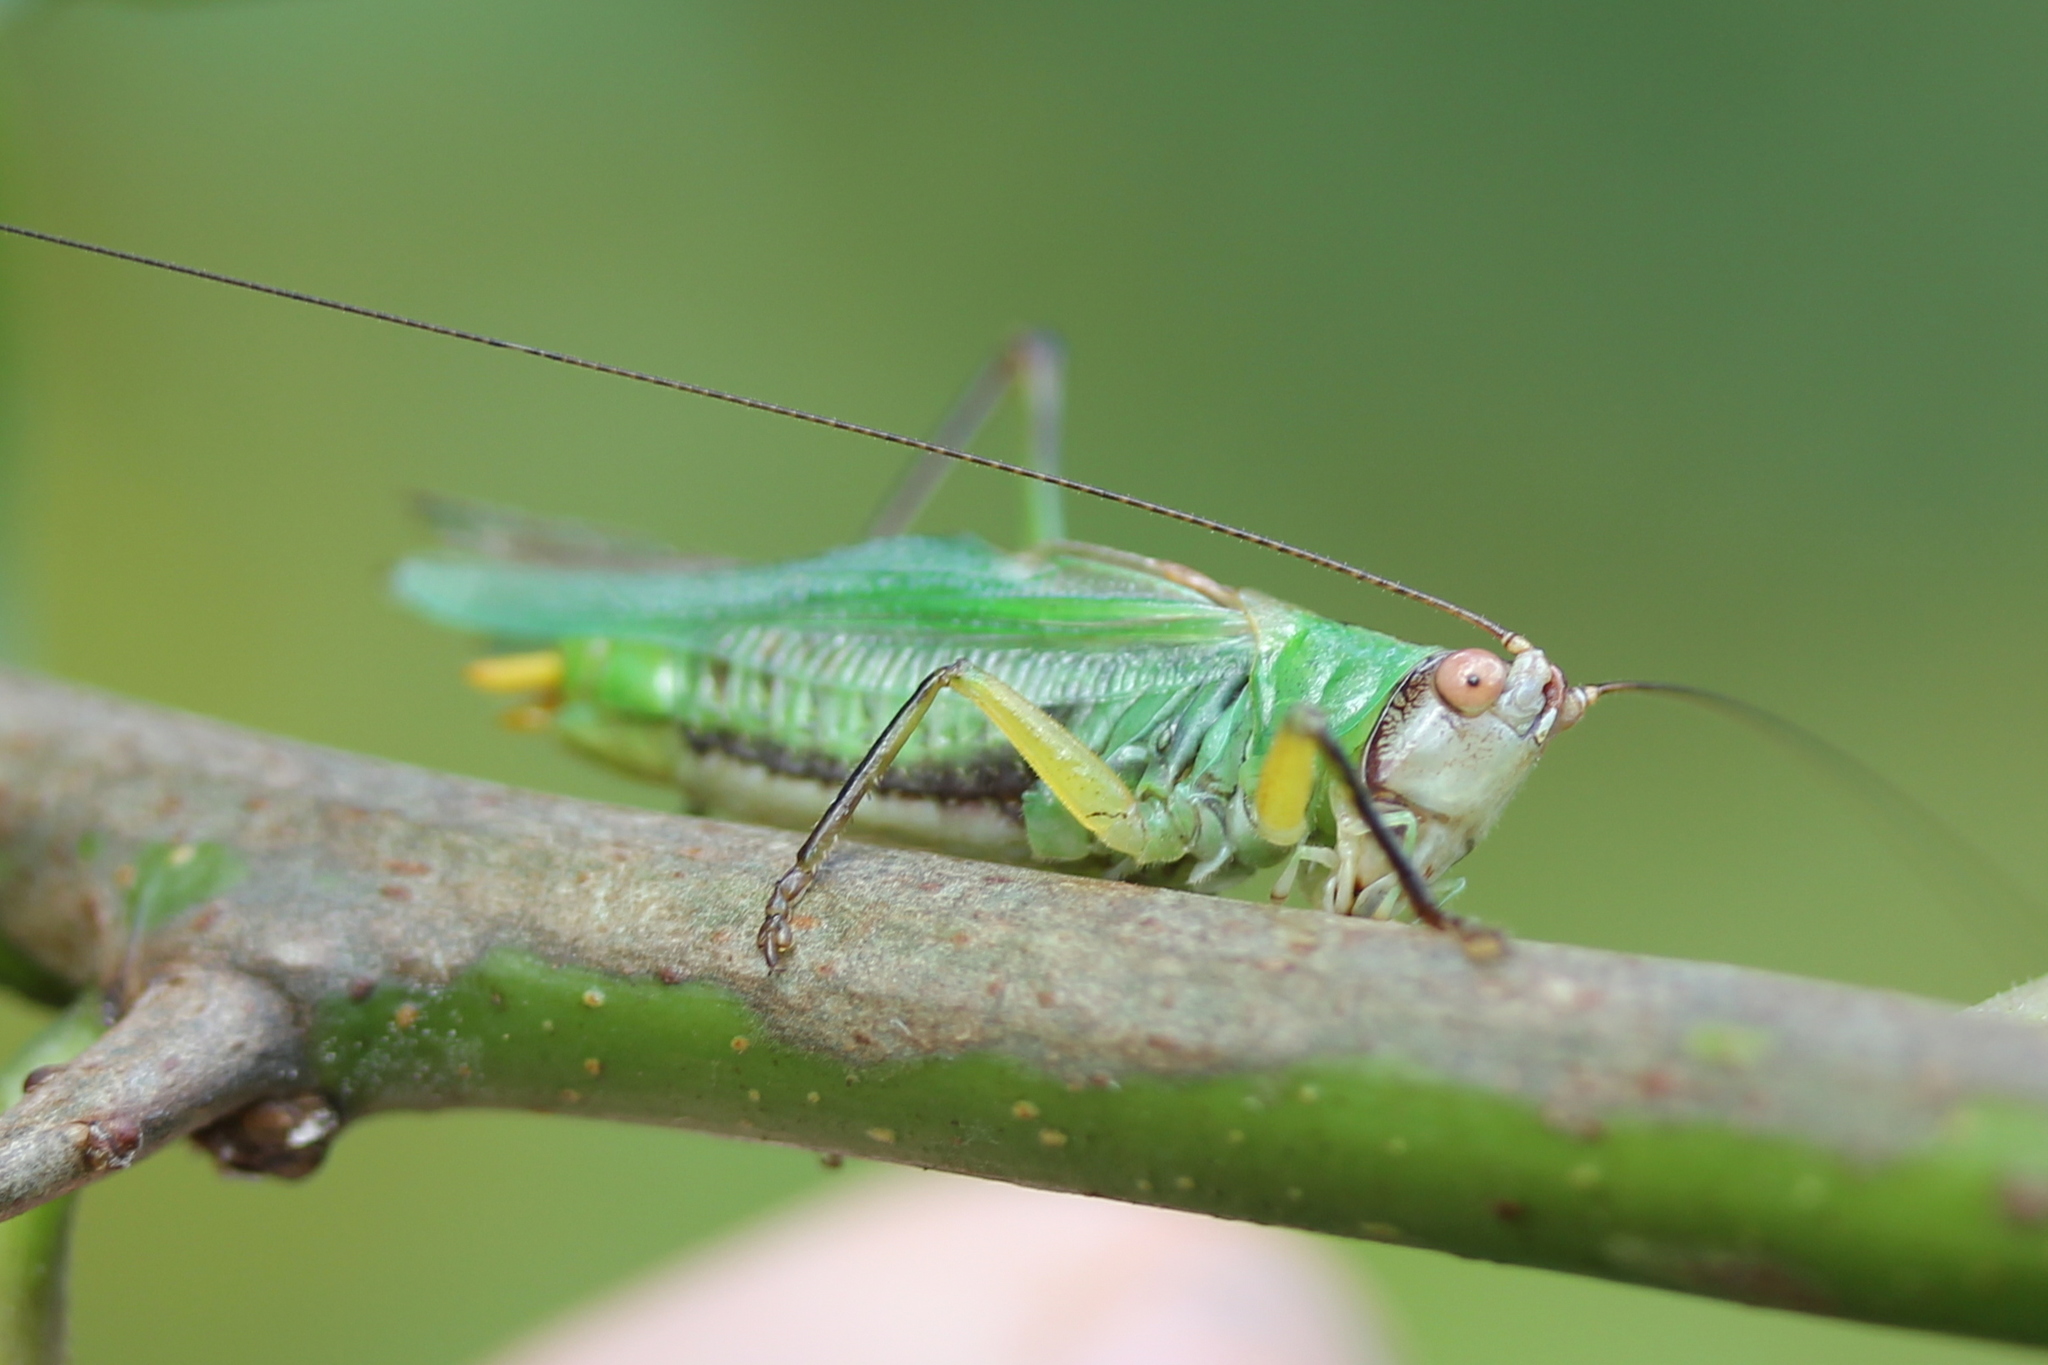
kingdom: Animalia
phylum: Arthropoda
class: Insecta
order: Orthoptera
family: Tettigoniidae
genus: Orchelimum
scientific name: Orchelimum nigripes
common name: Black-legged meadow katydid
